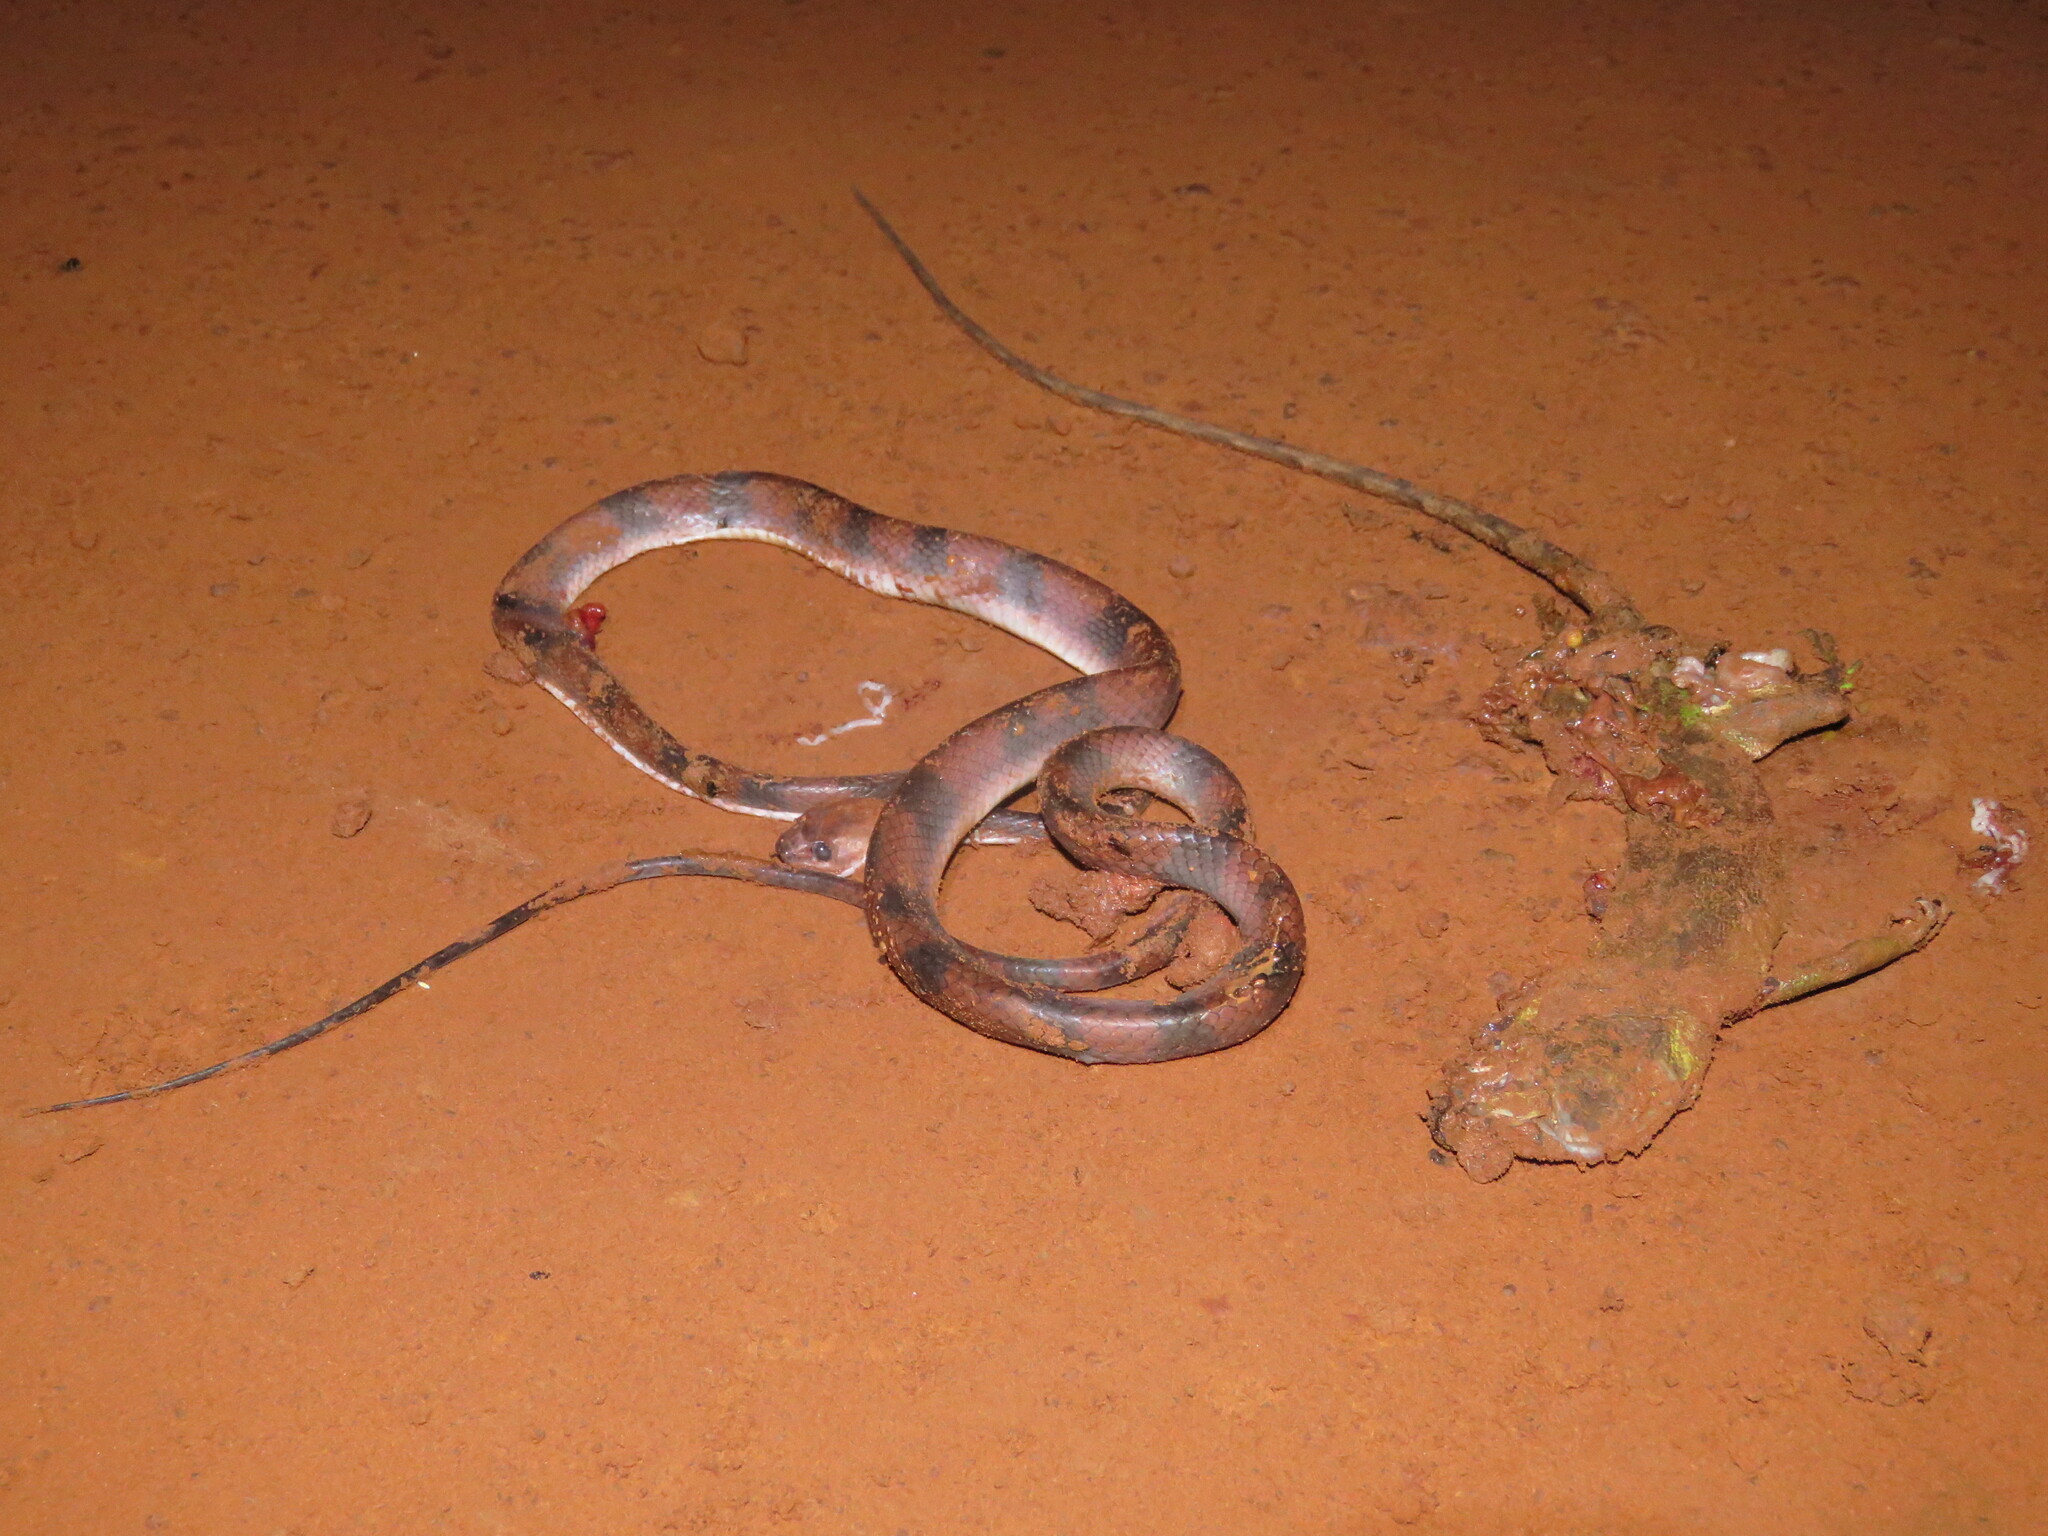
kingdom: Animalia
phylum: Chordata
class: Squamata
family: Colubridae
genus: Siphlophis
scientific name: Siphlophis compressus
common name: Tropical flat snake
